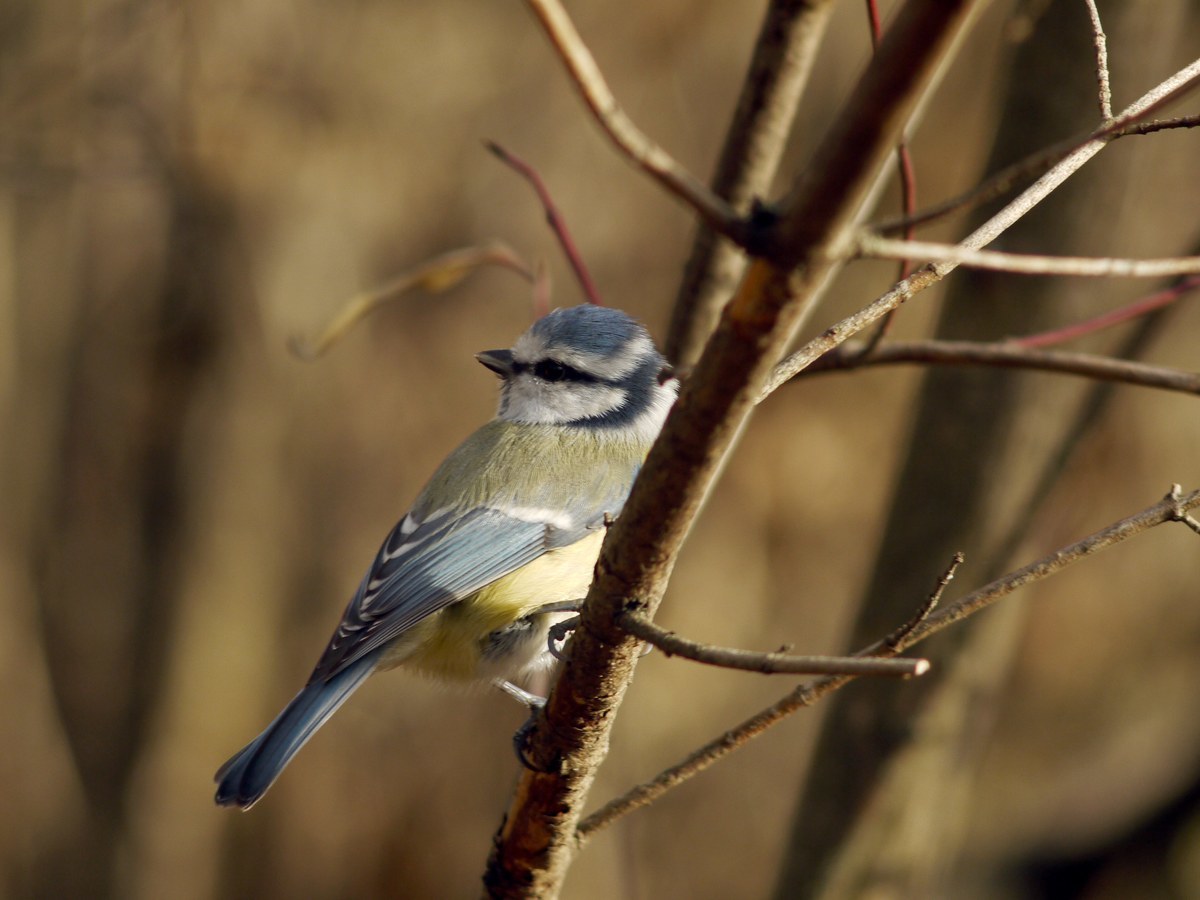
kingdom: Animalia
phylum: Chordata
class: Aves
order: Passeriformes
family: Paridae
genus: Cyanistes
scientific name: Cyanistes caeruleus
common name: Eurasian blue tit
